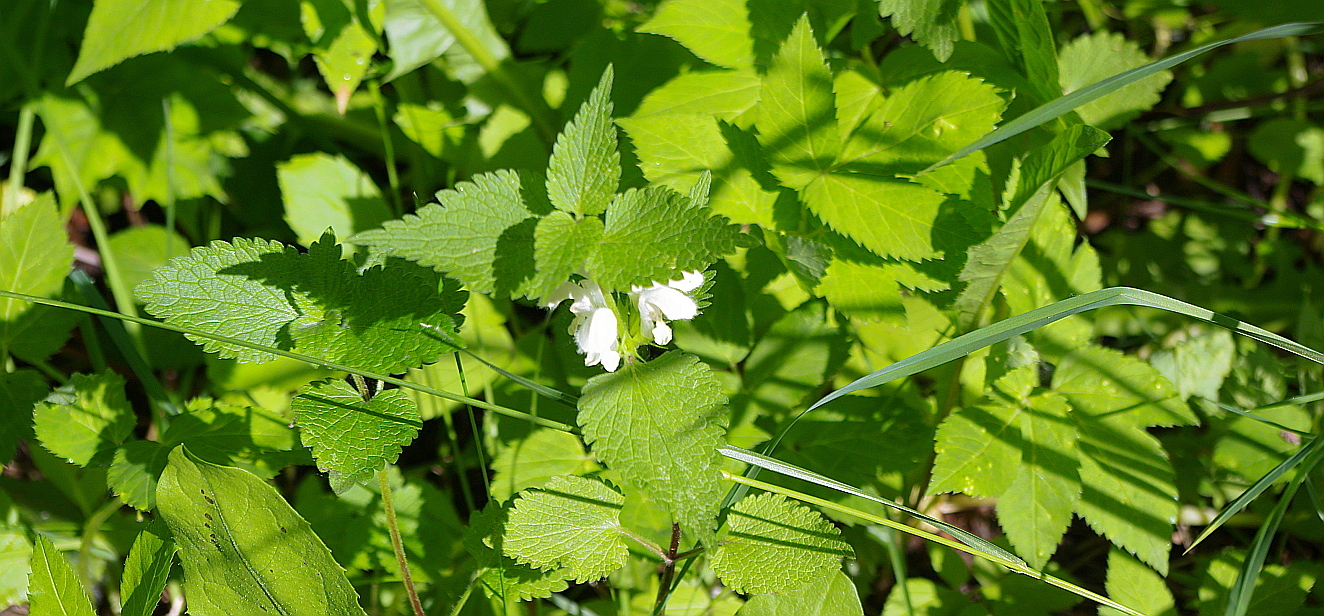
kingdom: Plantae
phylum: Tracheophyta
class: Magnoliopsida
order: Lamiales
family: Lamiaceae
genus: Lamium
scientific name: Lamium album
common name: White dead-nettle
